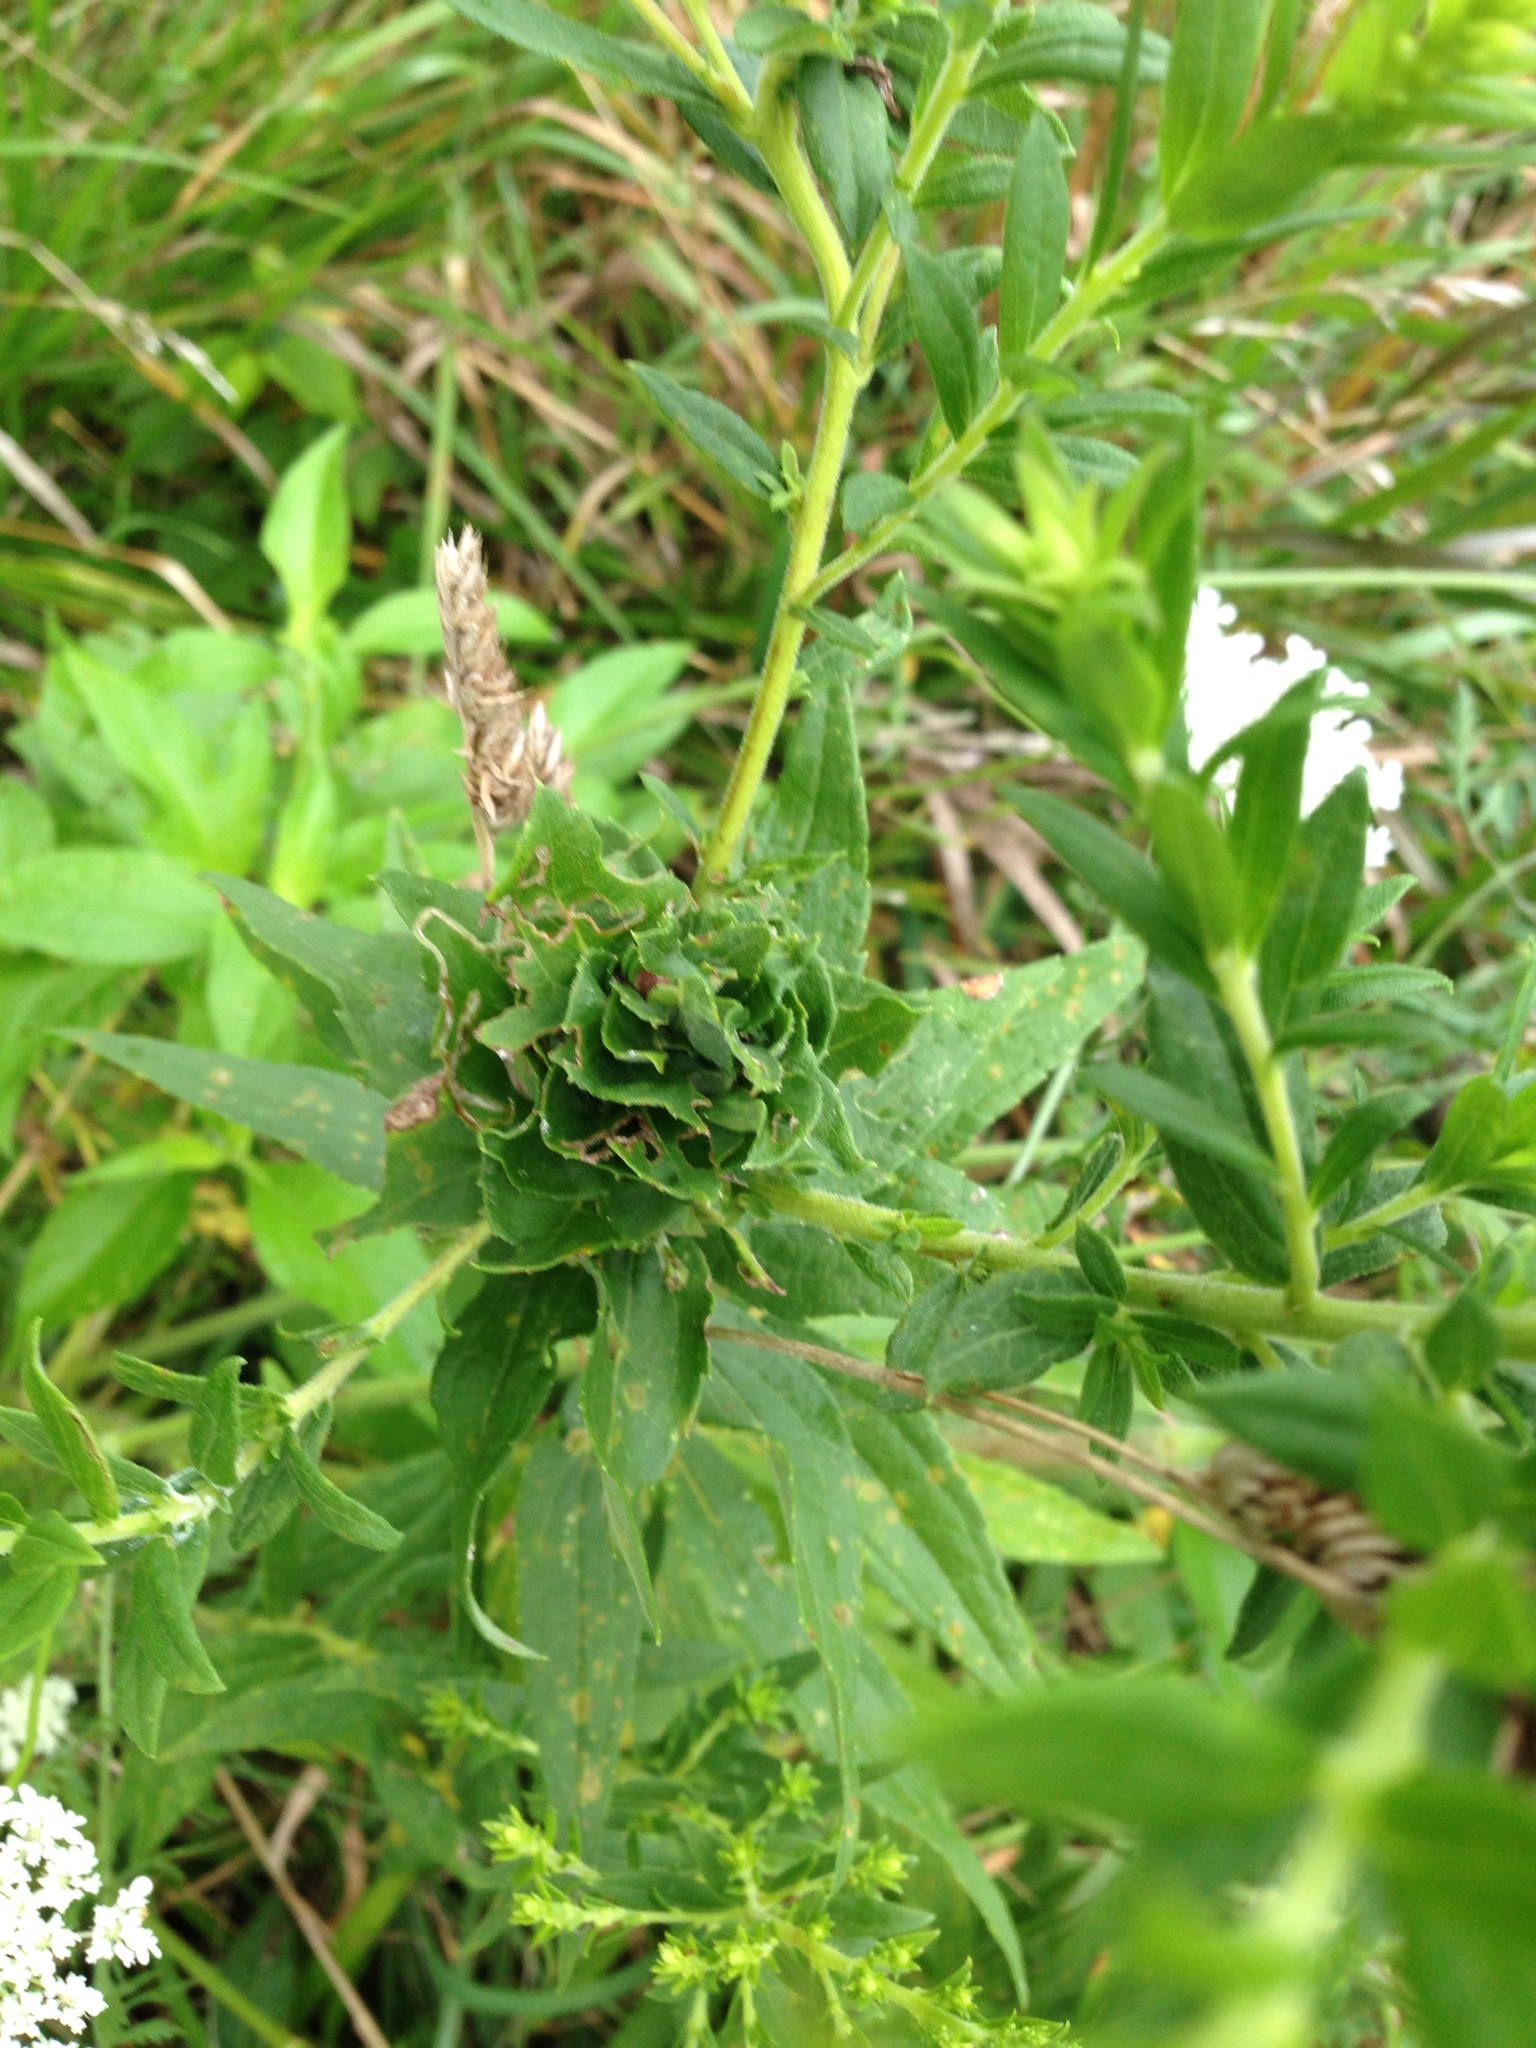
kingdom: Animalia
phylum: Arthropoda
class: Insecta
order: Diptera
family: Cecidomyiidae
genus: Rhopalomyia
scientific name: Rhopalomyia solidaginis
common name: Goldenrod bunch gall midge
